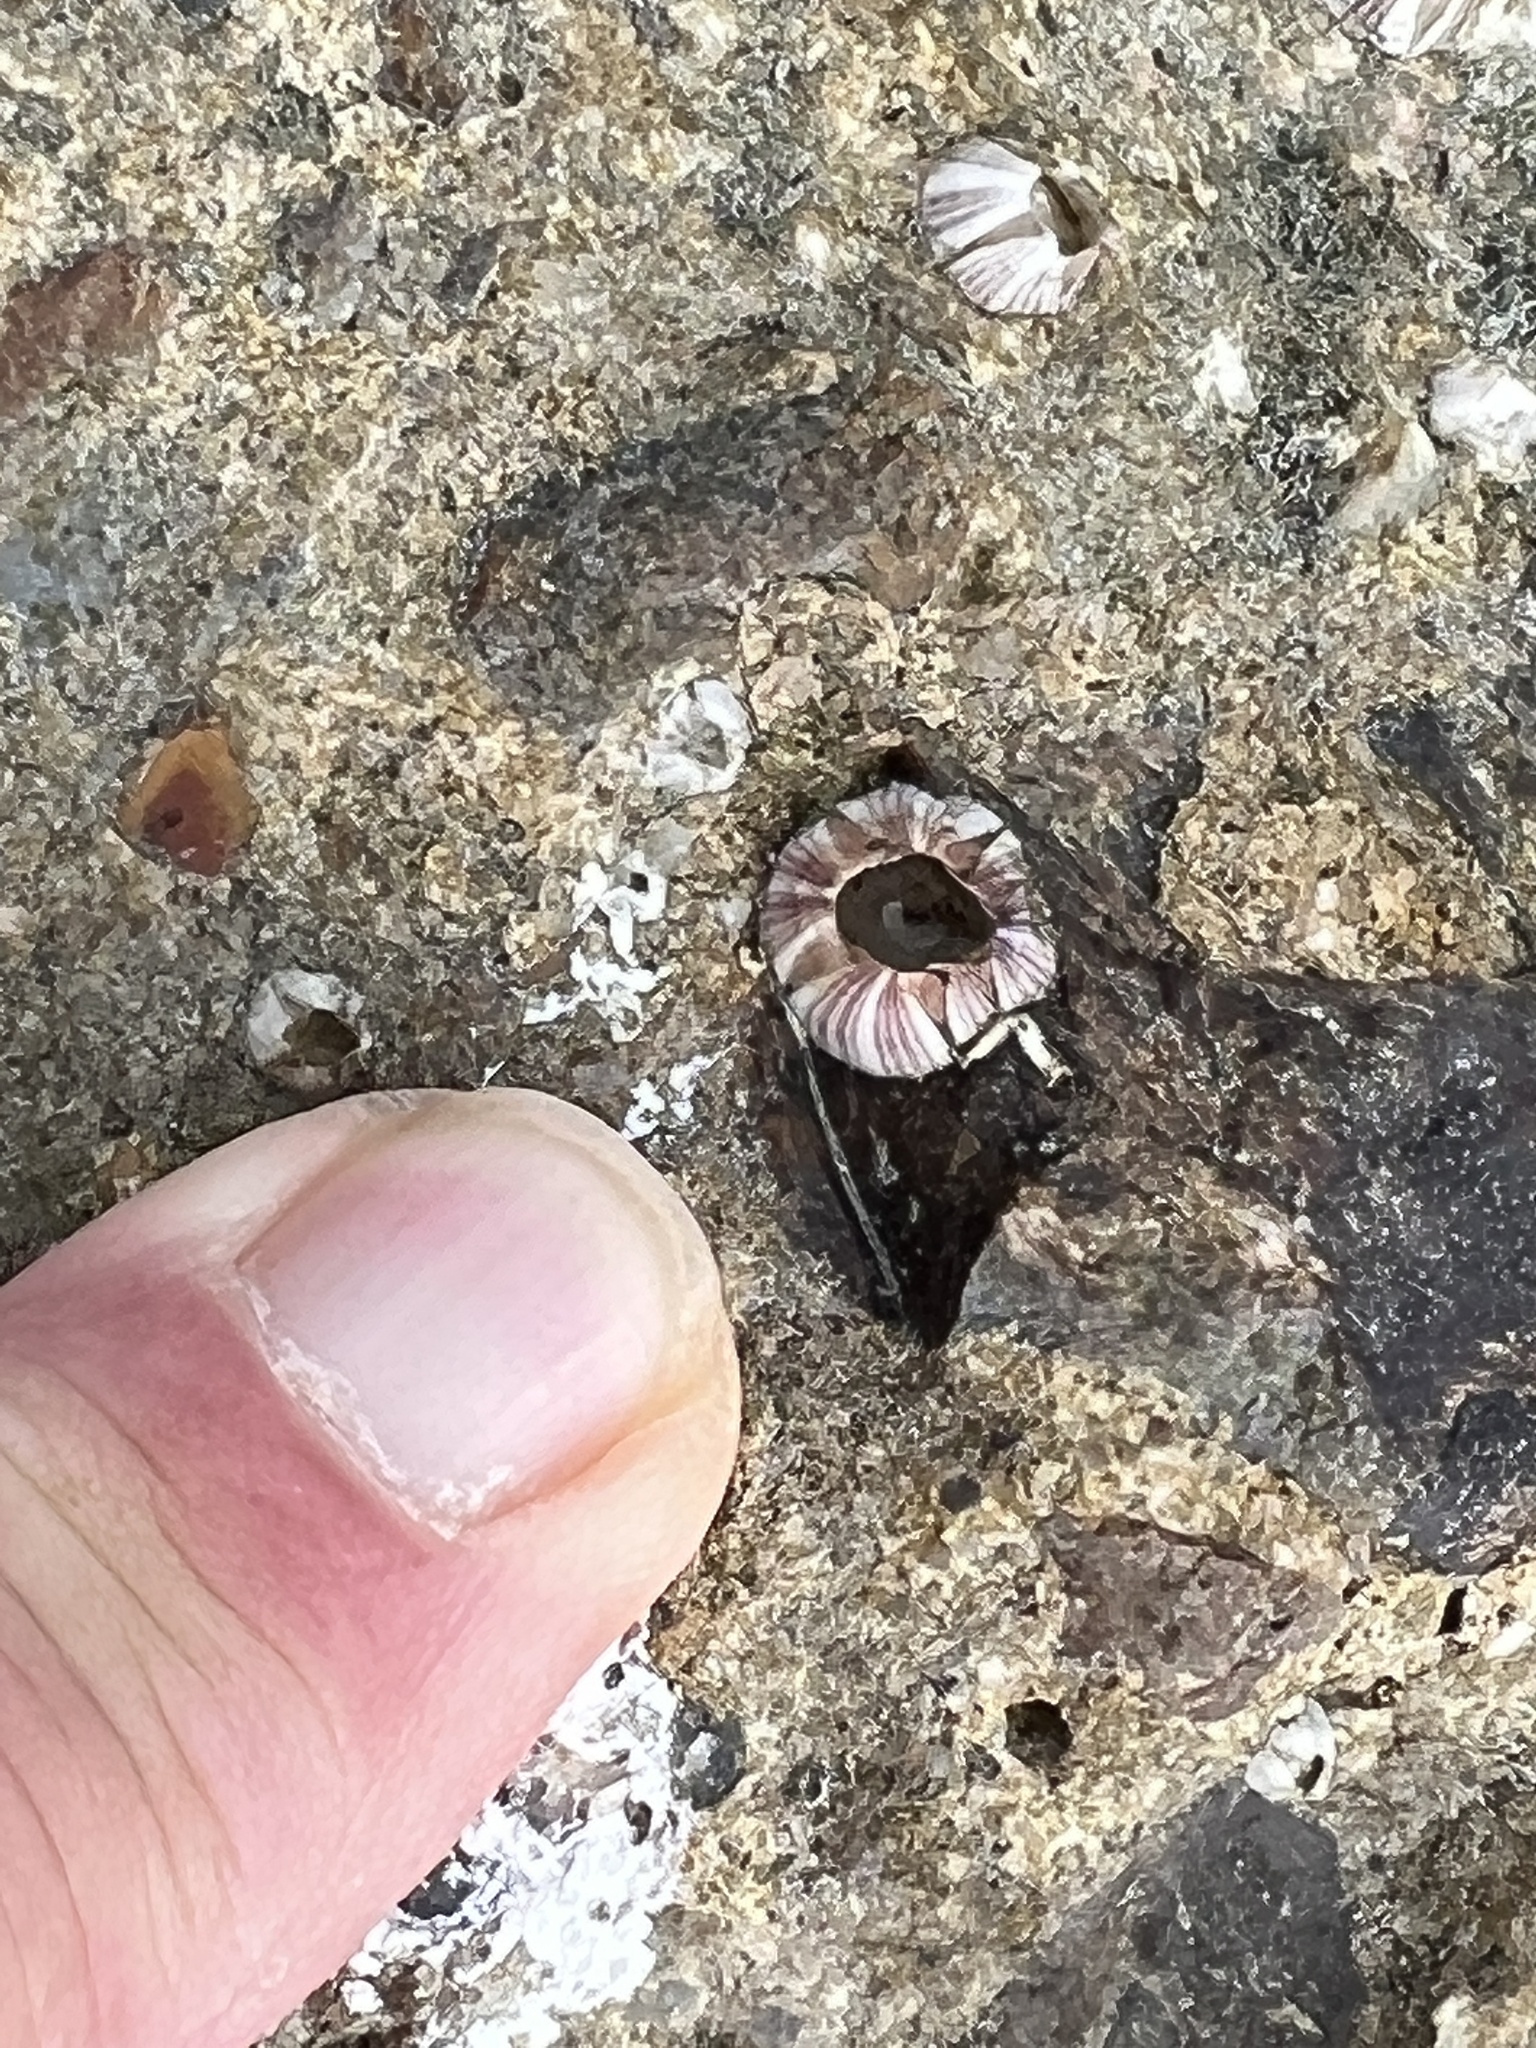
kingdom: Animalia
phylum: Arthropoda
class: Maxillopoda
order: Sessilia
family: Balanidae
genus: Amphibalanus
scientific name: Amphibalanus amphitrite
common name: Striped acorn barnacle
